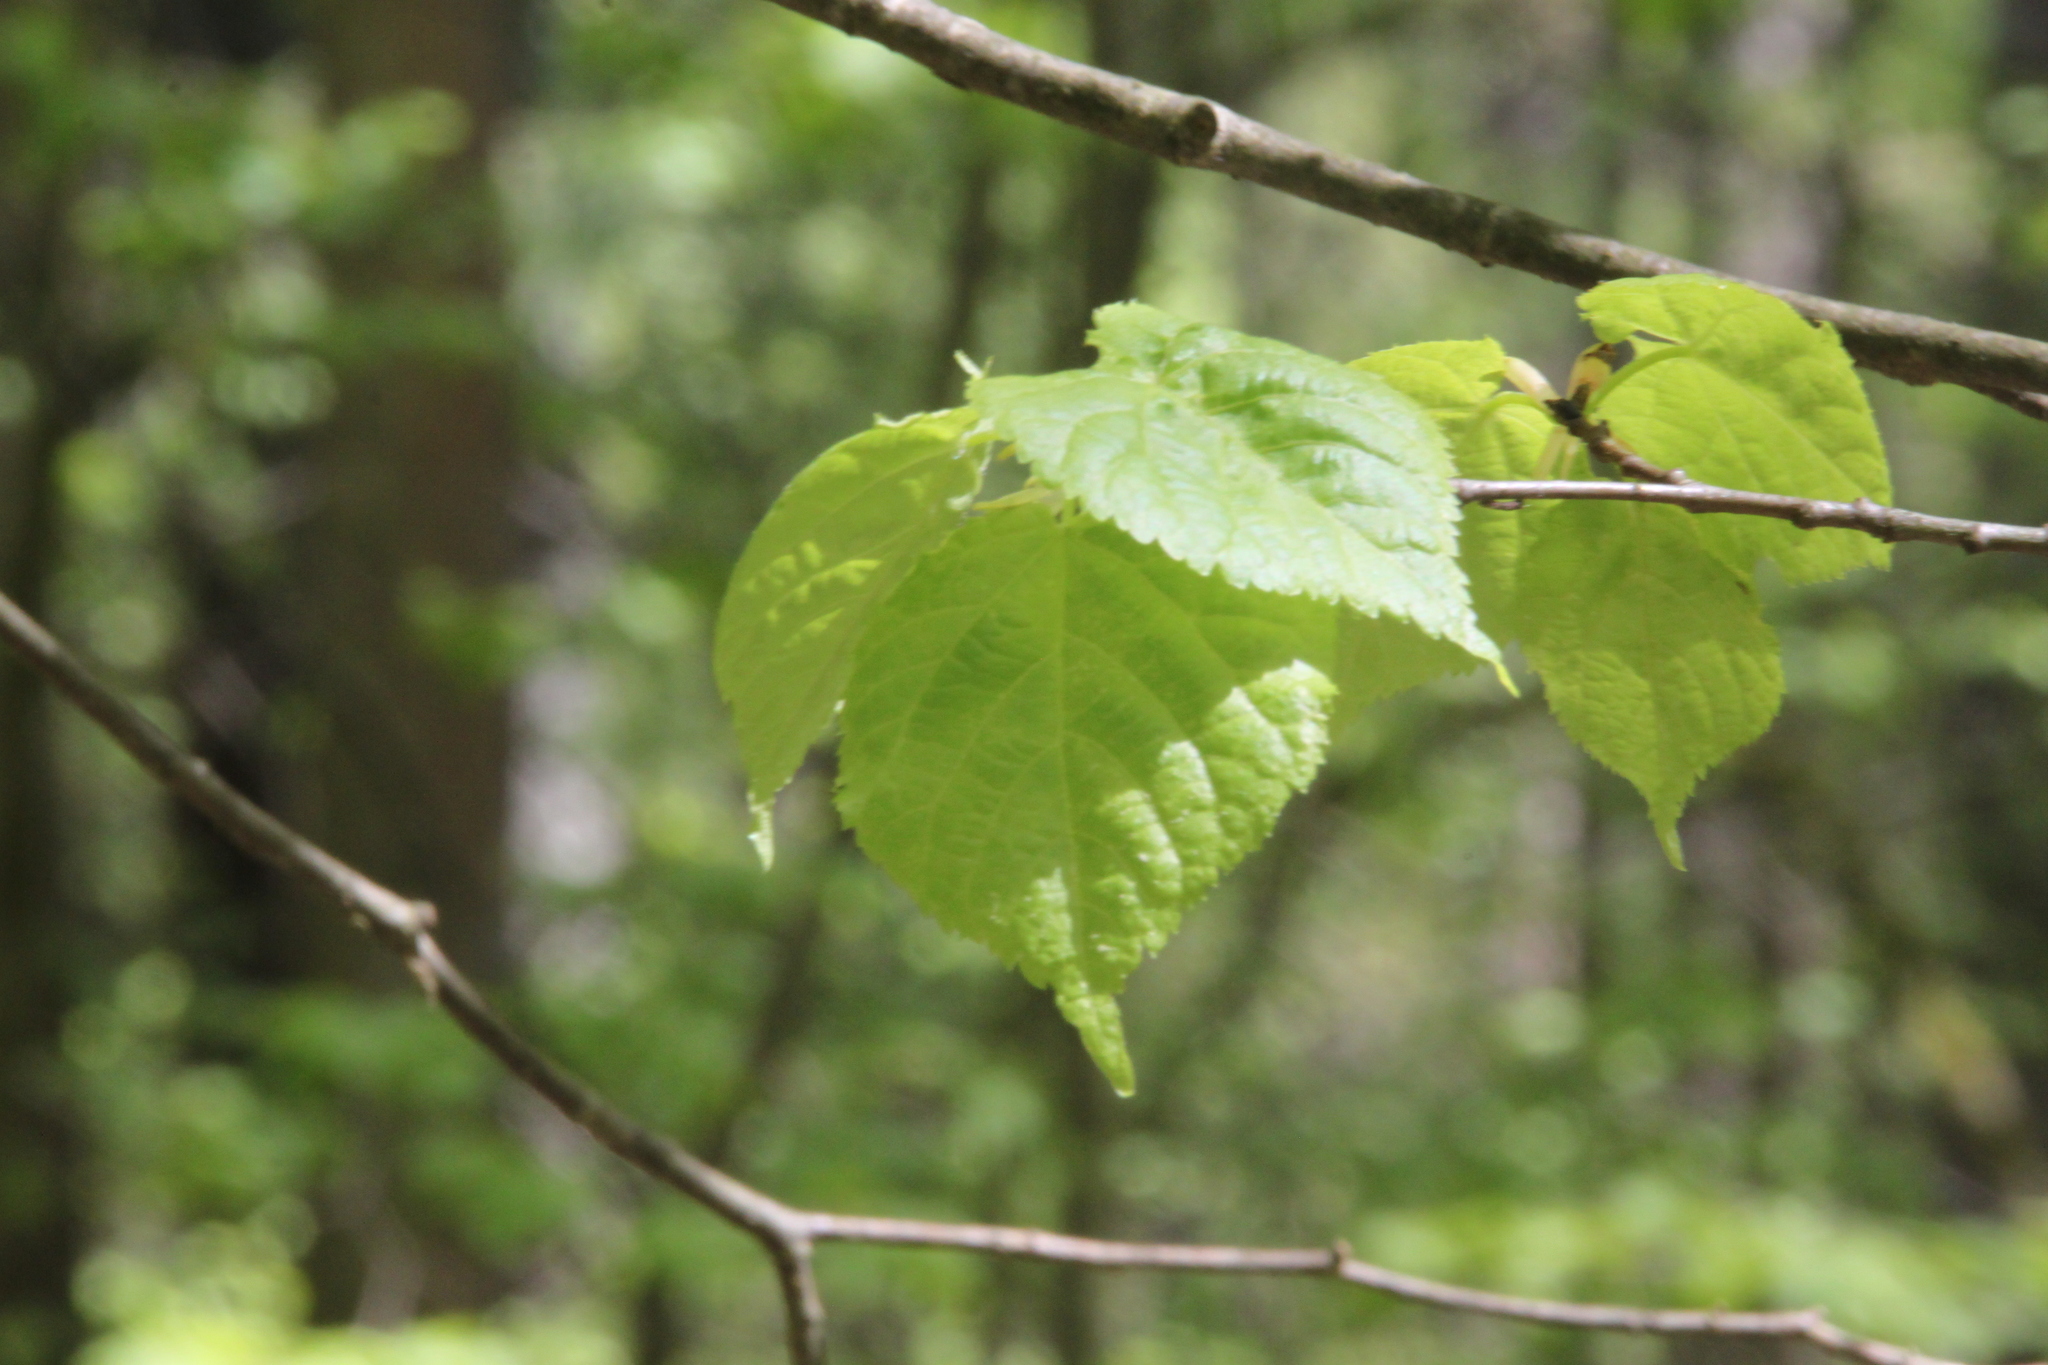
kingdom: Plantae
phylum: Tracheophyta
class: Magnoliopsida
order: Malvales
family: Malvaceae
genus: Tilia
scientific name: Tilia cordata
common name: Small-leaved lime
